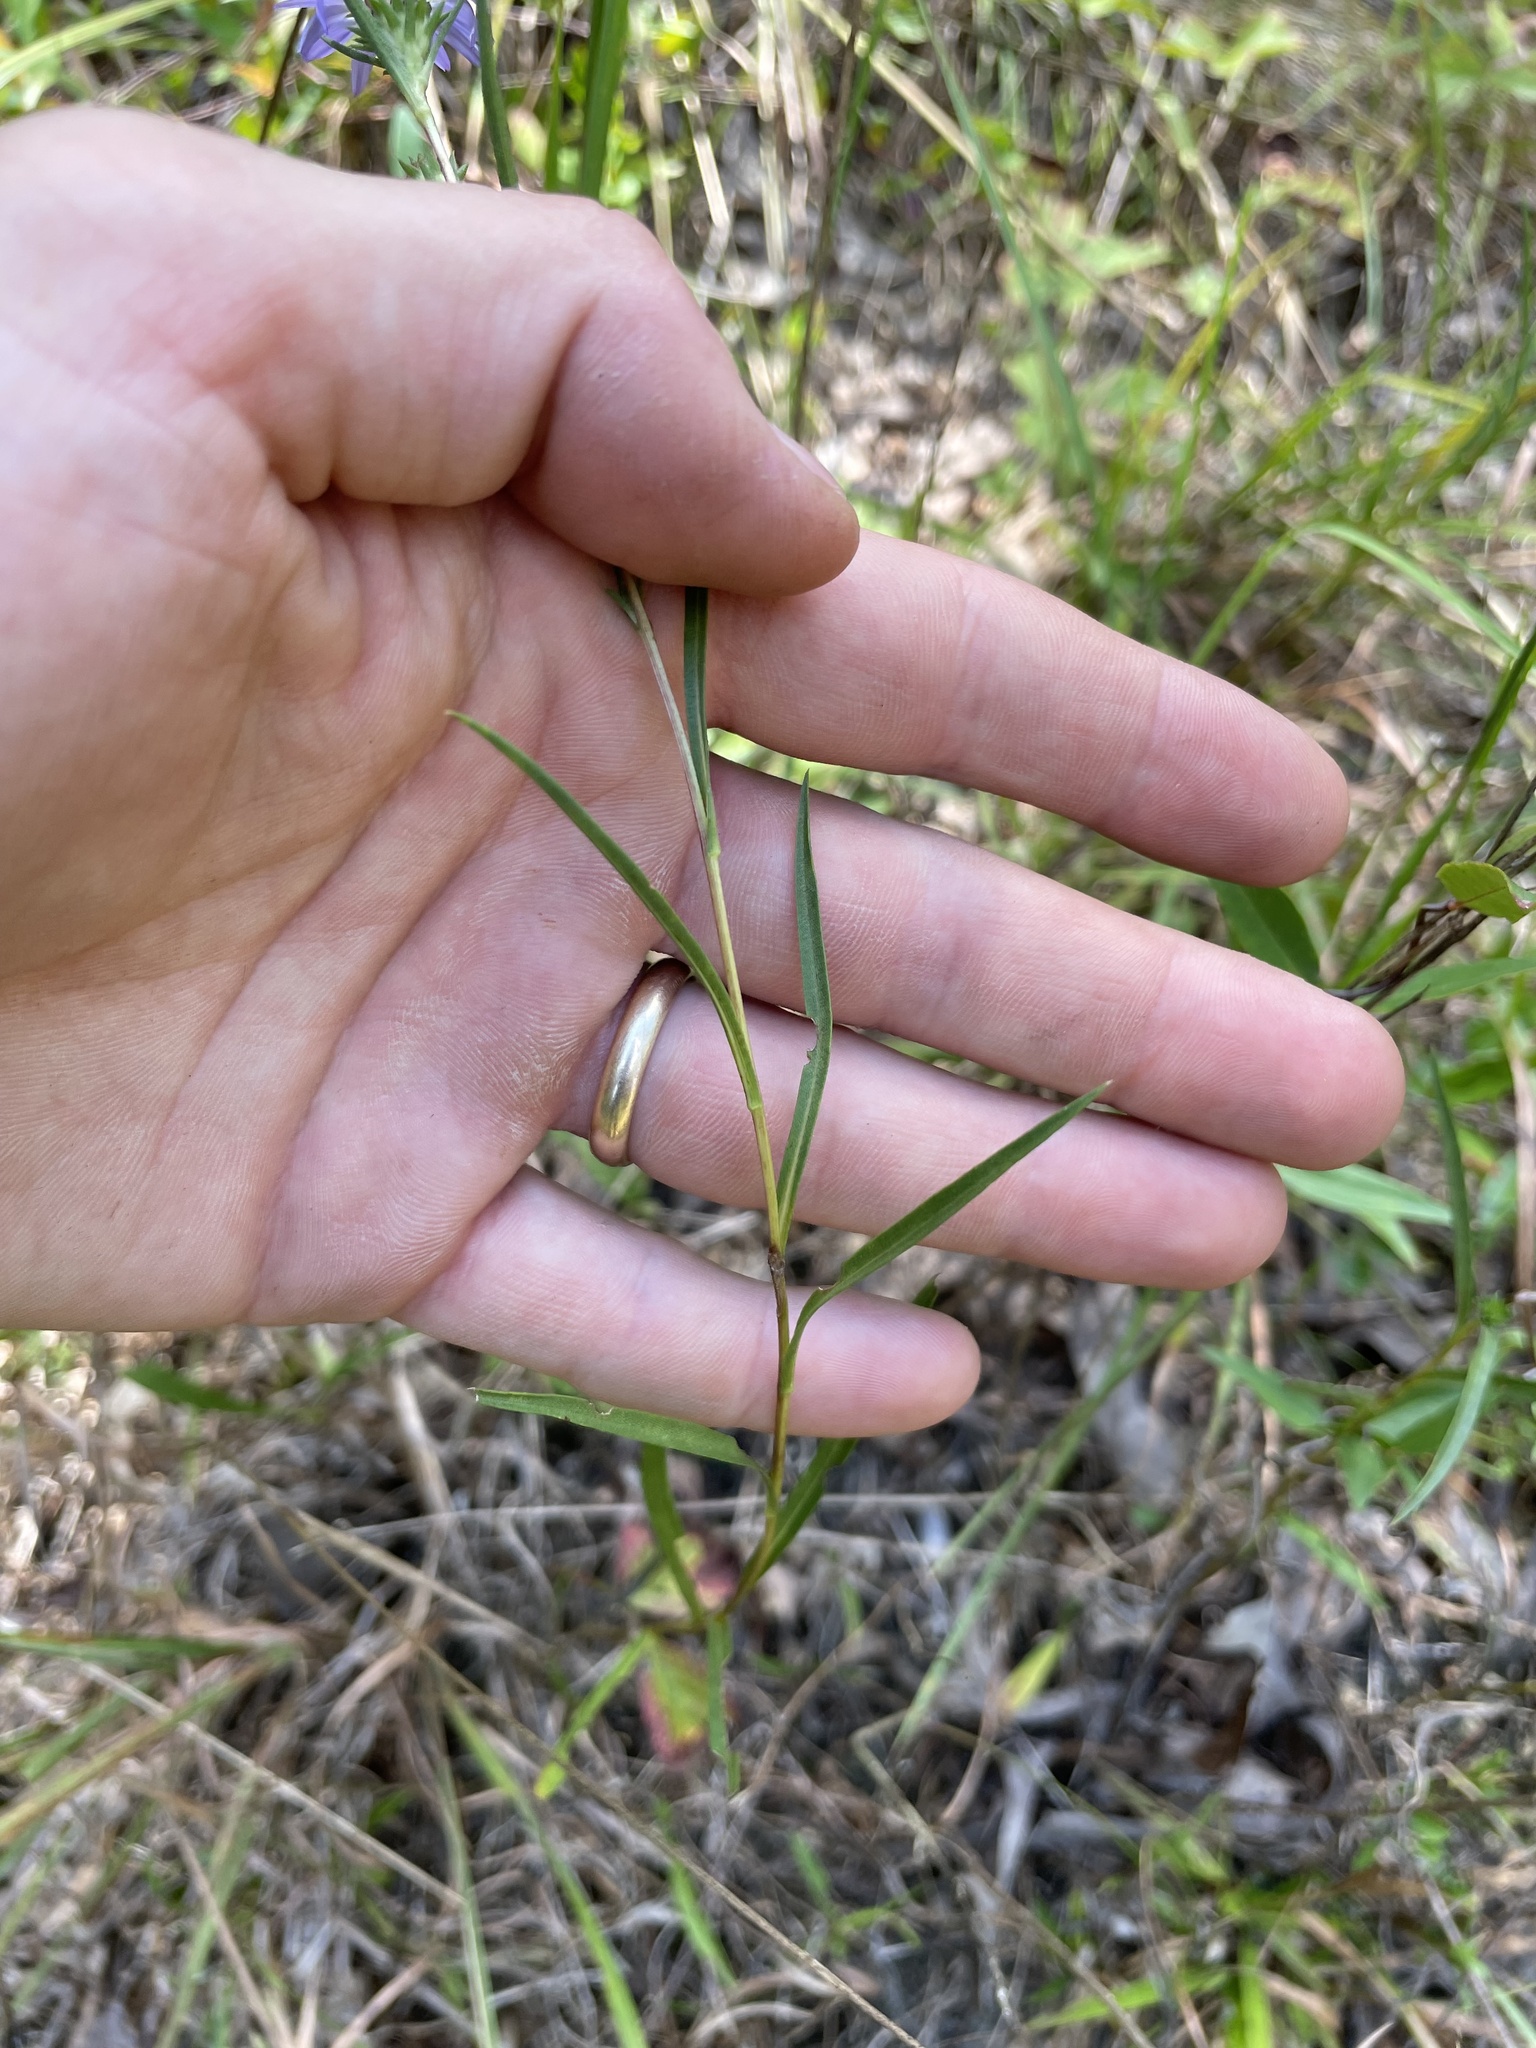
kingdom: Plantae
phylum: Tracheophyta
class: Magnoliopsida
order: Asterales
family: Asteraceae
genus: Eurybia
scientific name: Eurybia hemispherica
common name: Showy aster
